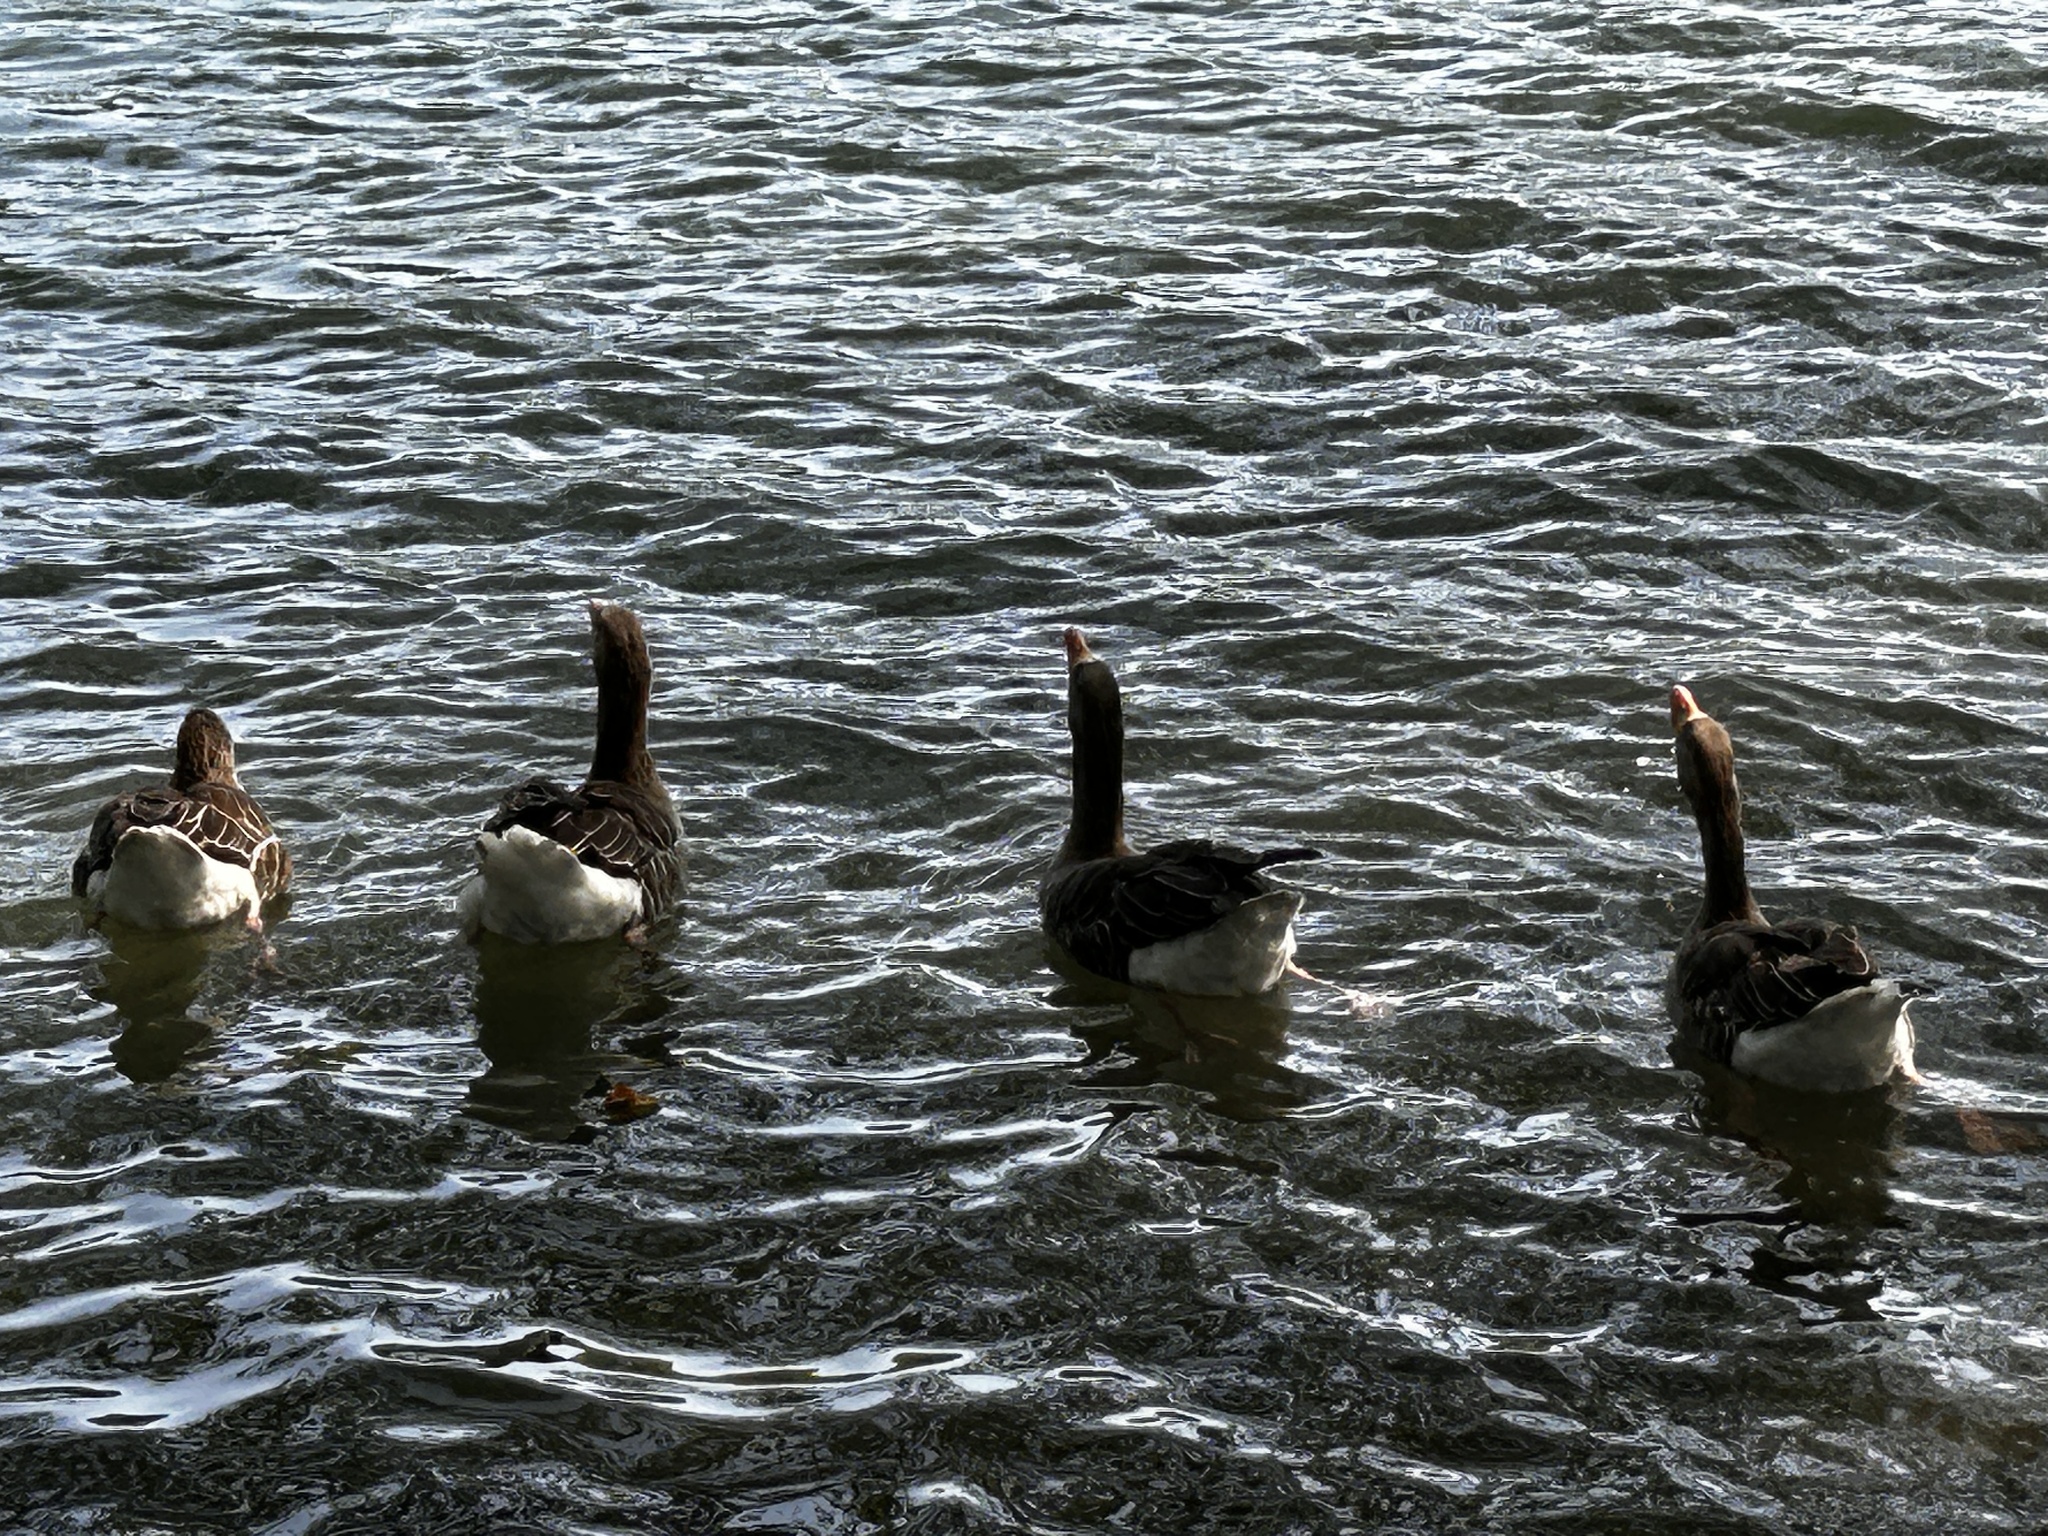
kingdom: Animalia
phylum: Chordata
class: Aves
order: Anseriformes
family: Anatidae
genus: Anser
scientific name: Anser anser
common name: Greylag goose
